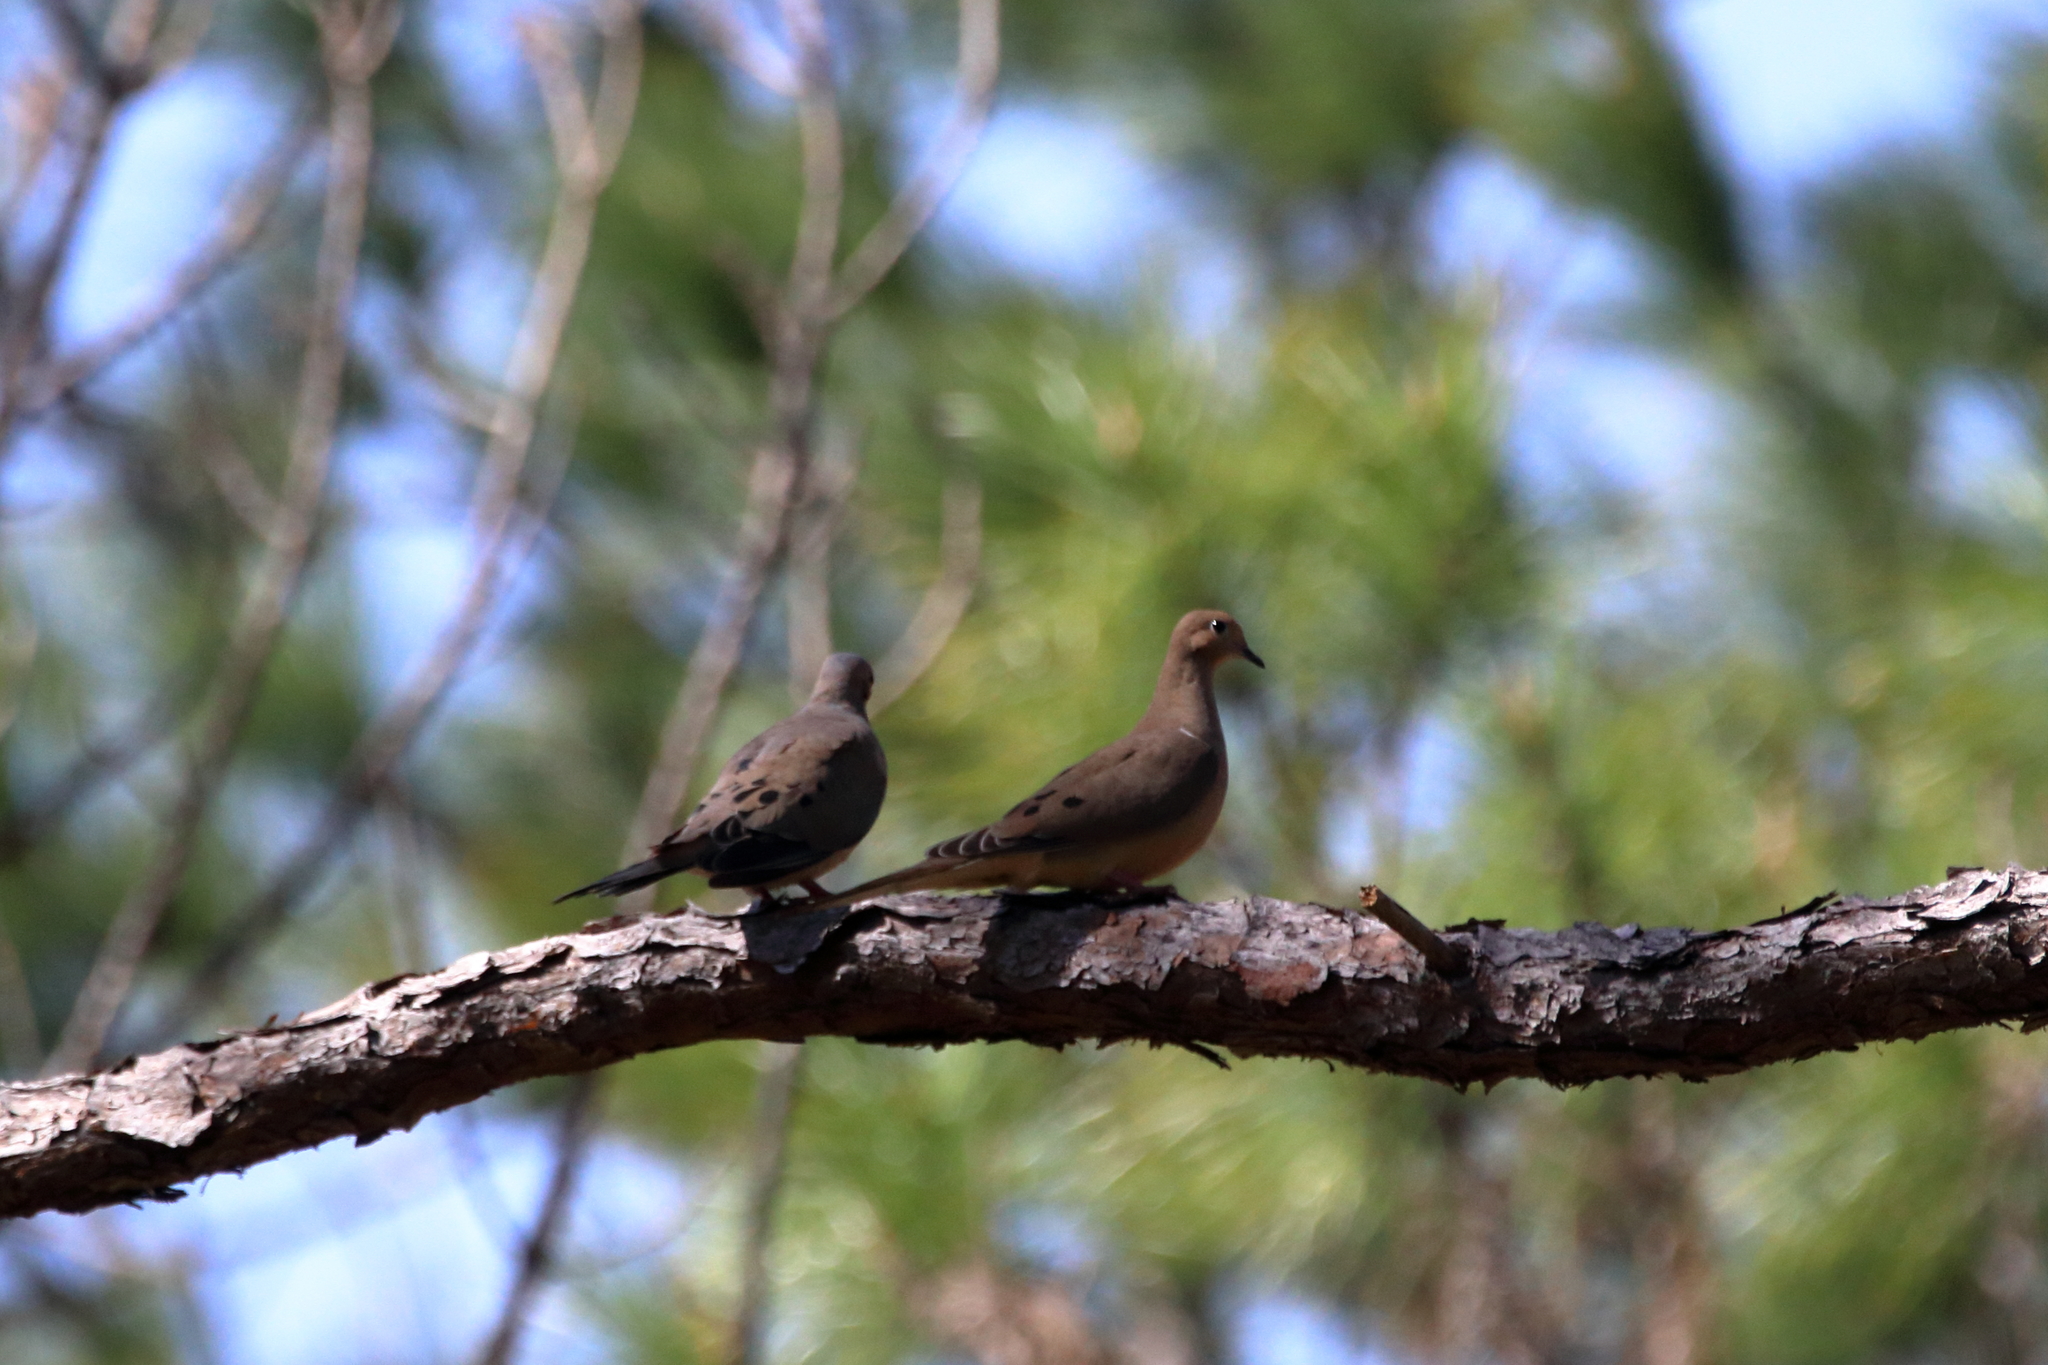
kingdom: Animalia
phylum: Chordata
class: Aves
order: Columbiformes
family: Columbidae
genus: Zenaida
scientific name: Zenaida macroura
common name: Mourning dove
